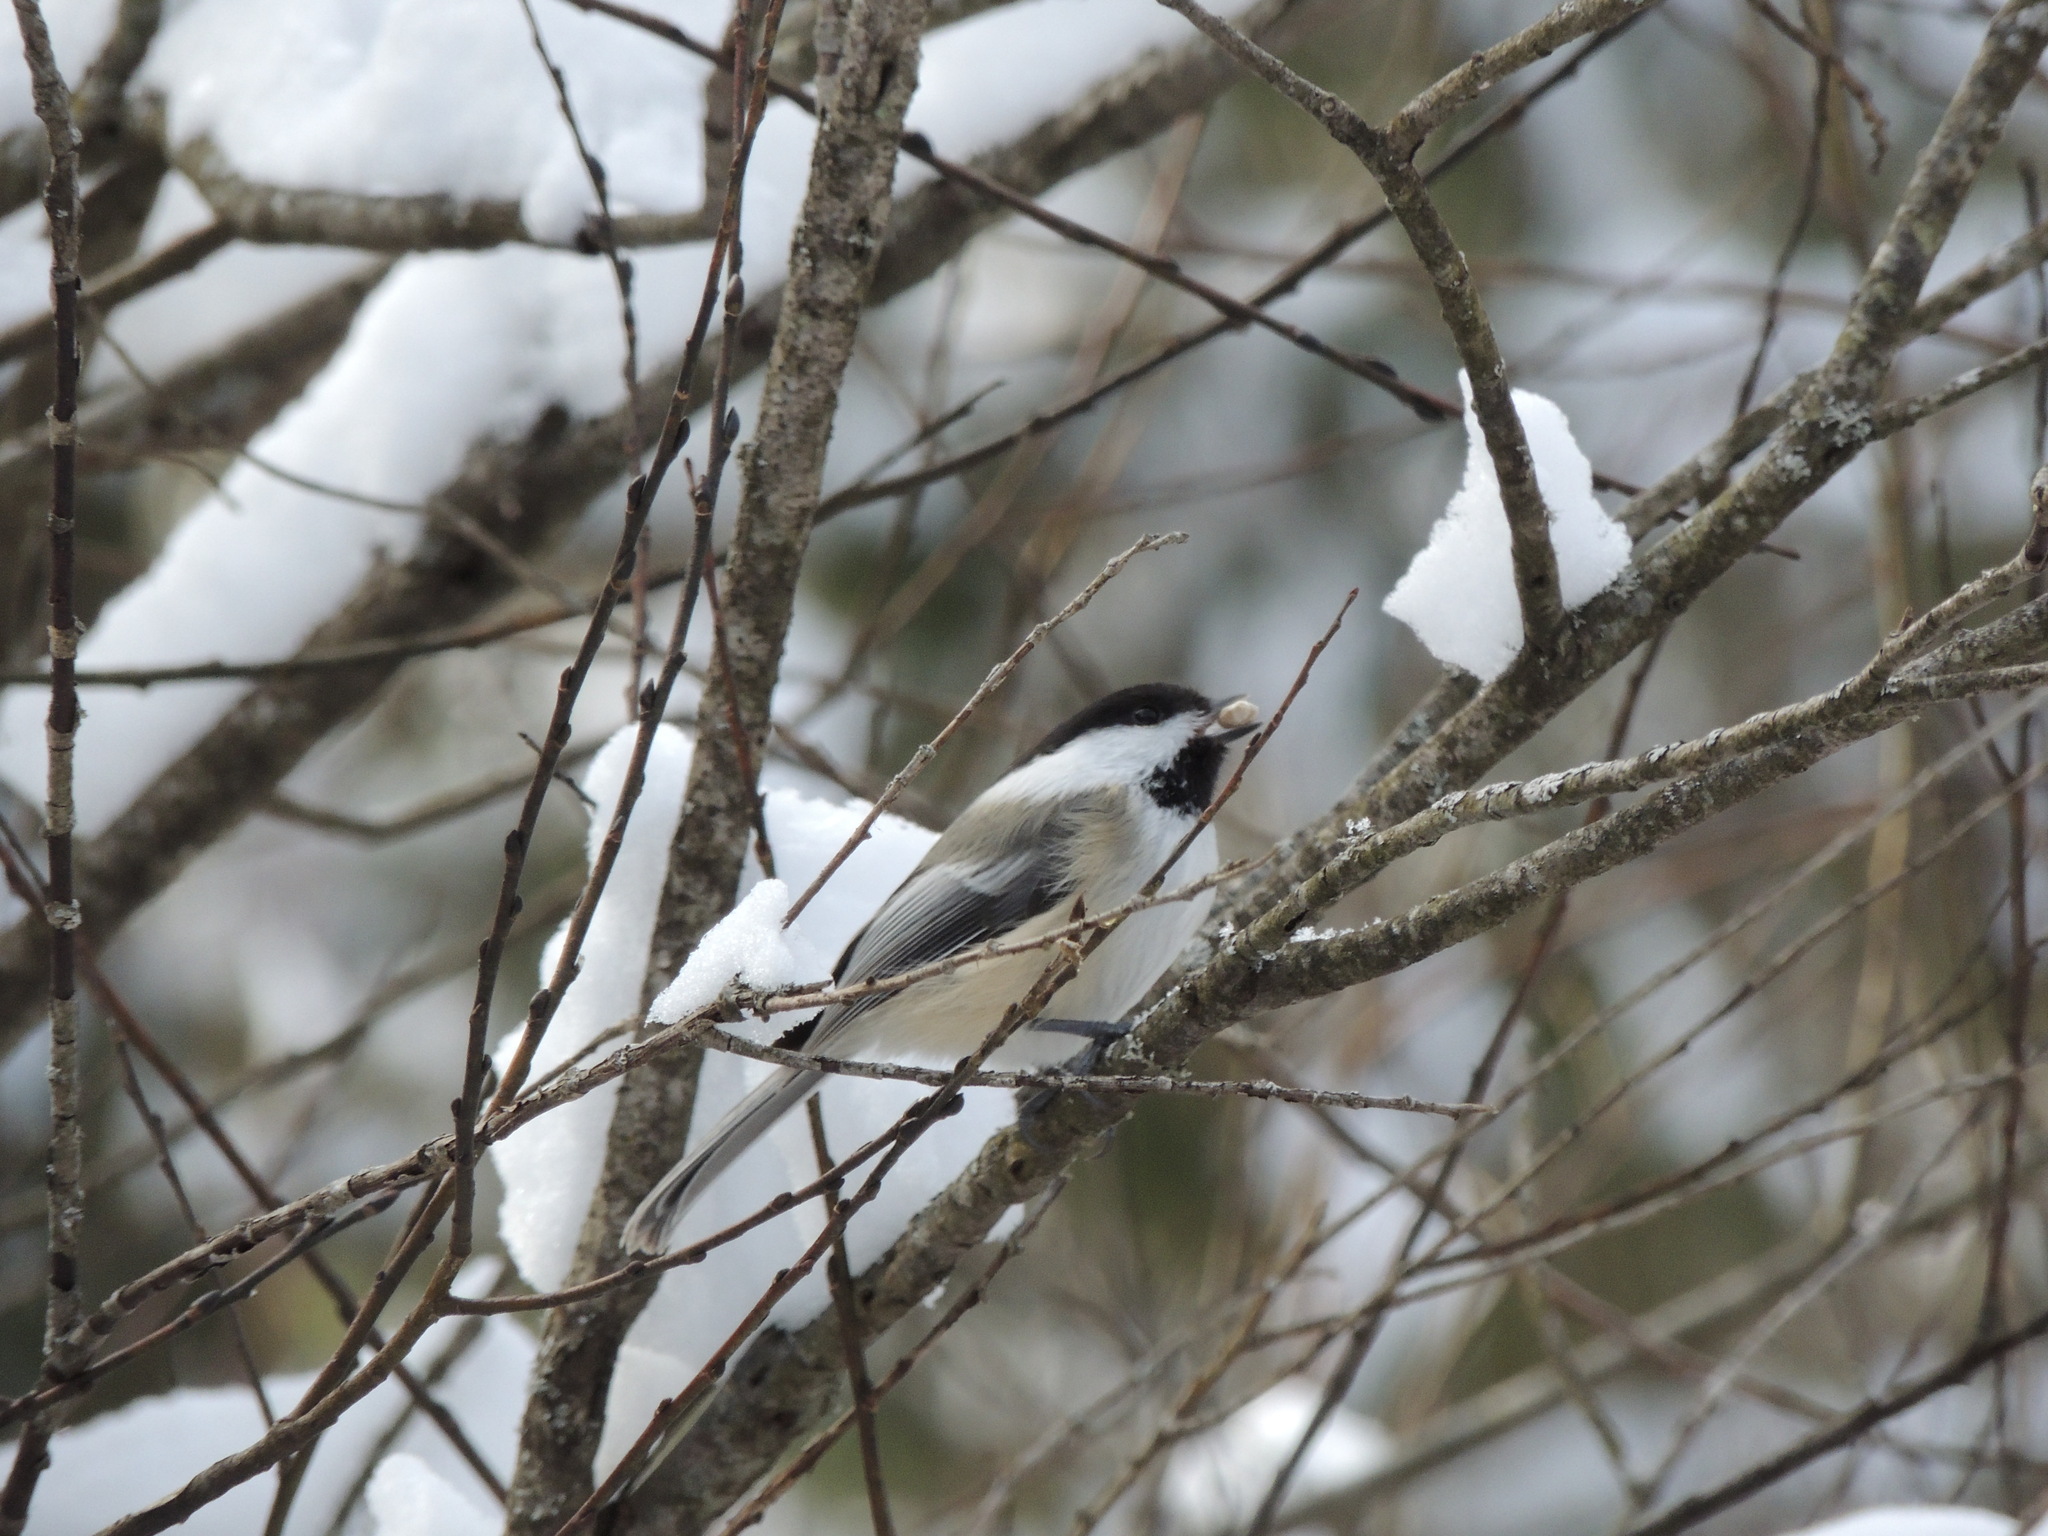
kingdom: Animalia
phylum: Chordata
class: Aves
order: Passeriformes
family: Paridae
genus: Poecile
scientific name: Poecile atricapillus
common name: Black-capped chickadee
